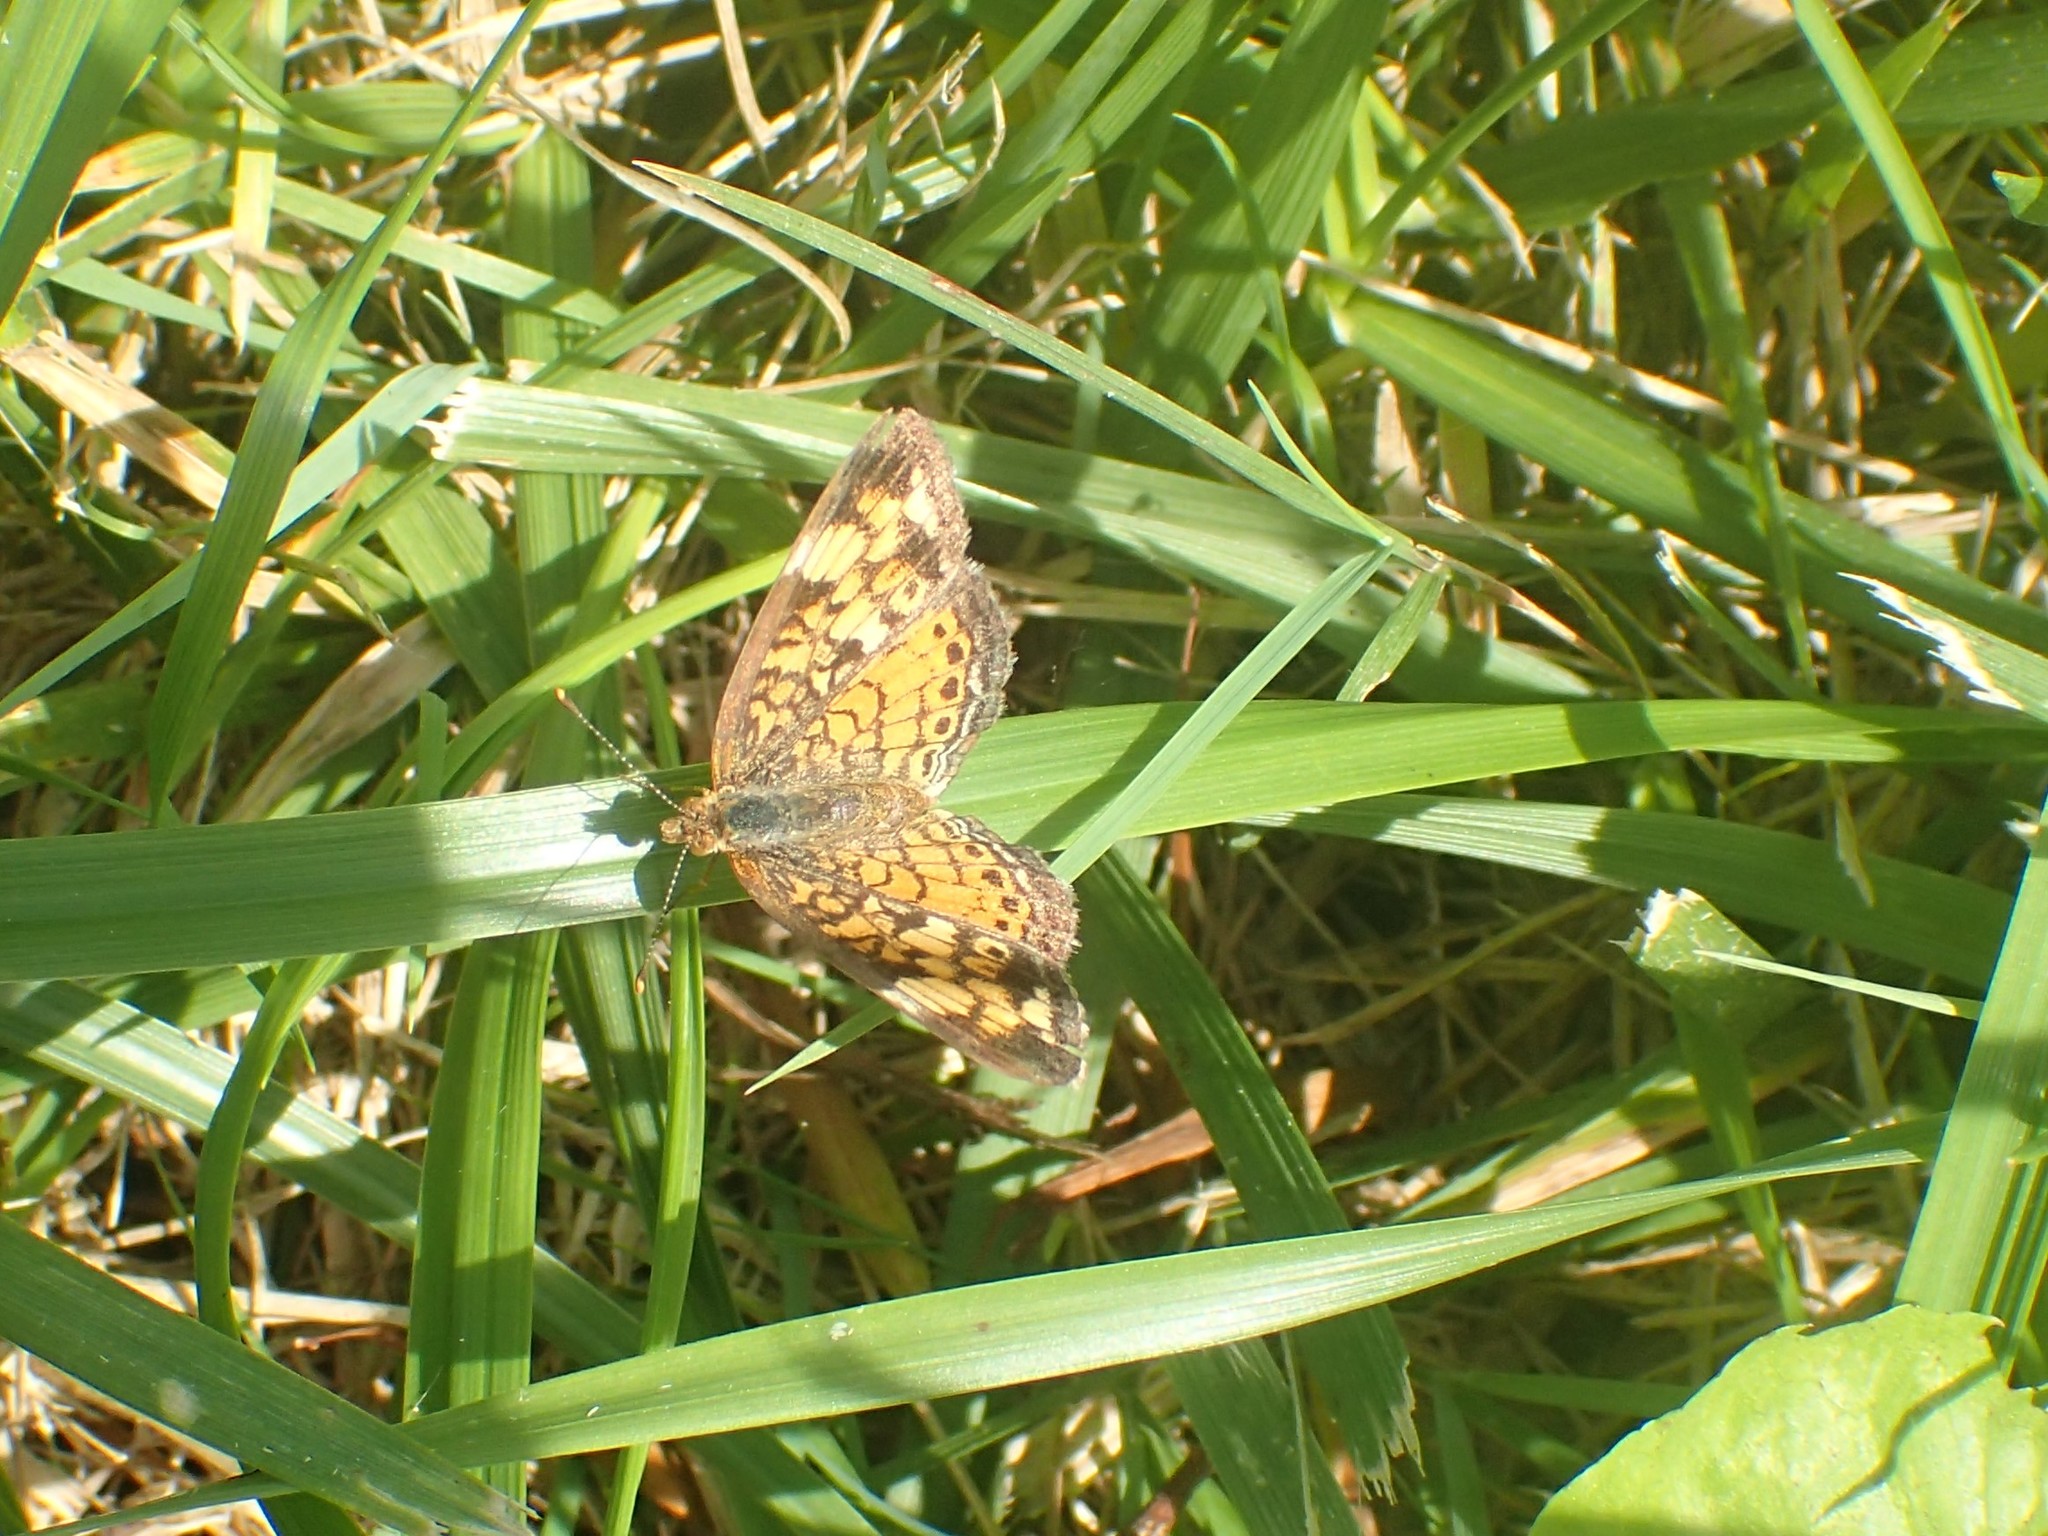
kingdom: Animalia
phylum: Arthropoda
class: Insecta
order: Lepidoptera
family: Nymphalidae
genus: Phyciodes
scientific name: Phyciodes tharos
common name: Pearl crescent
